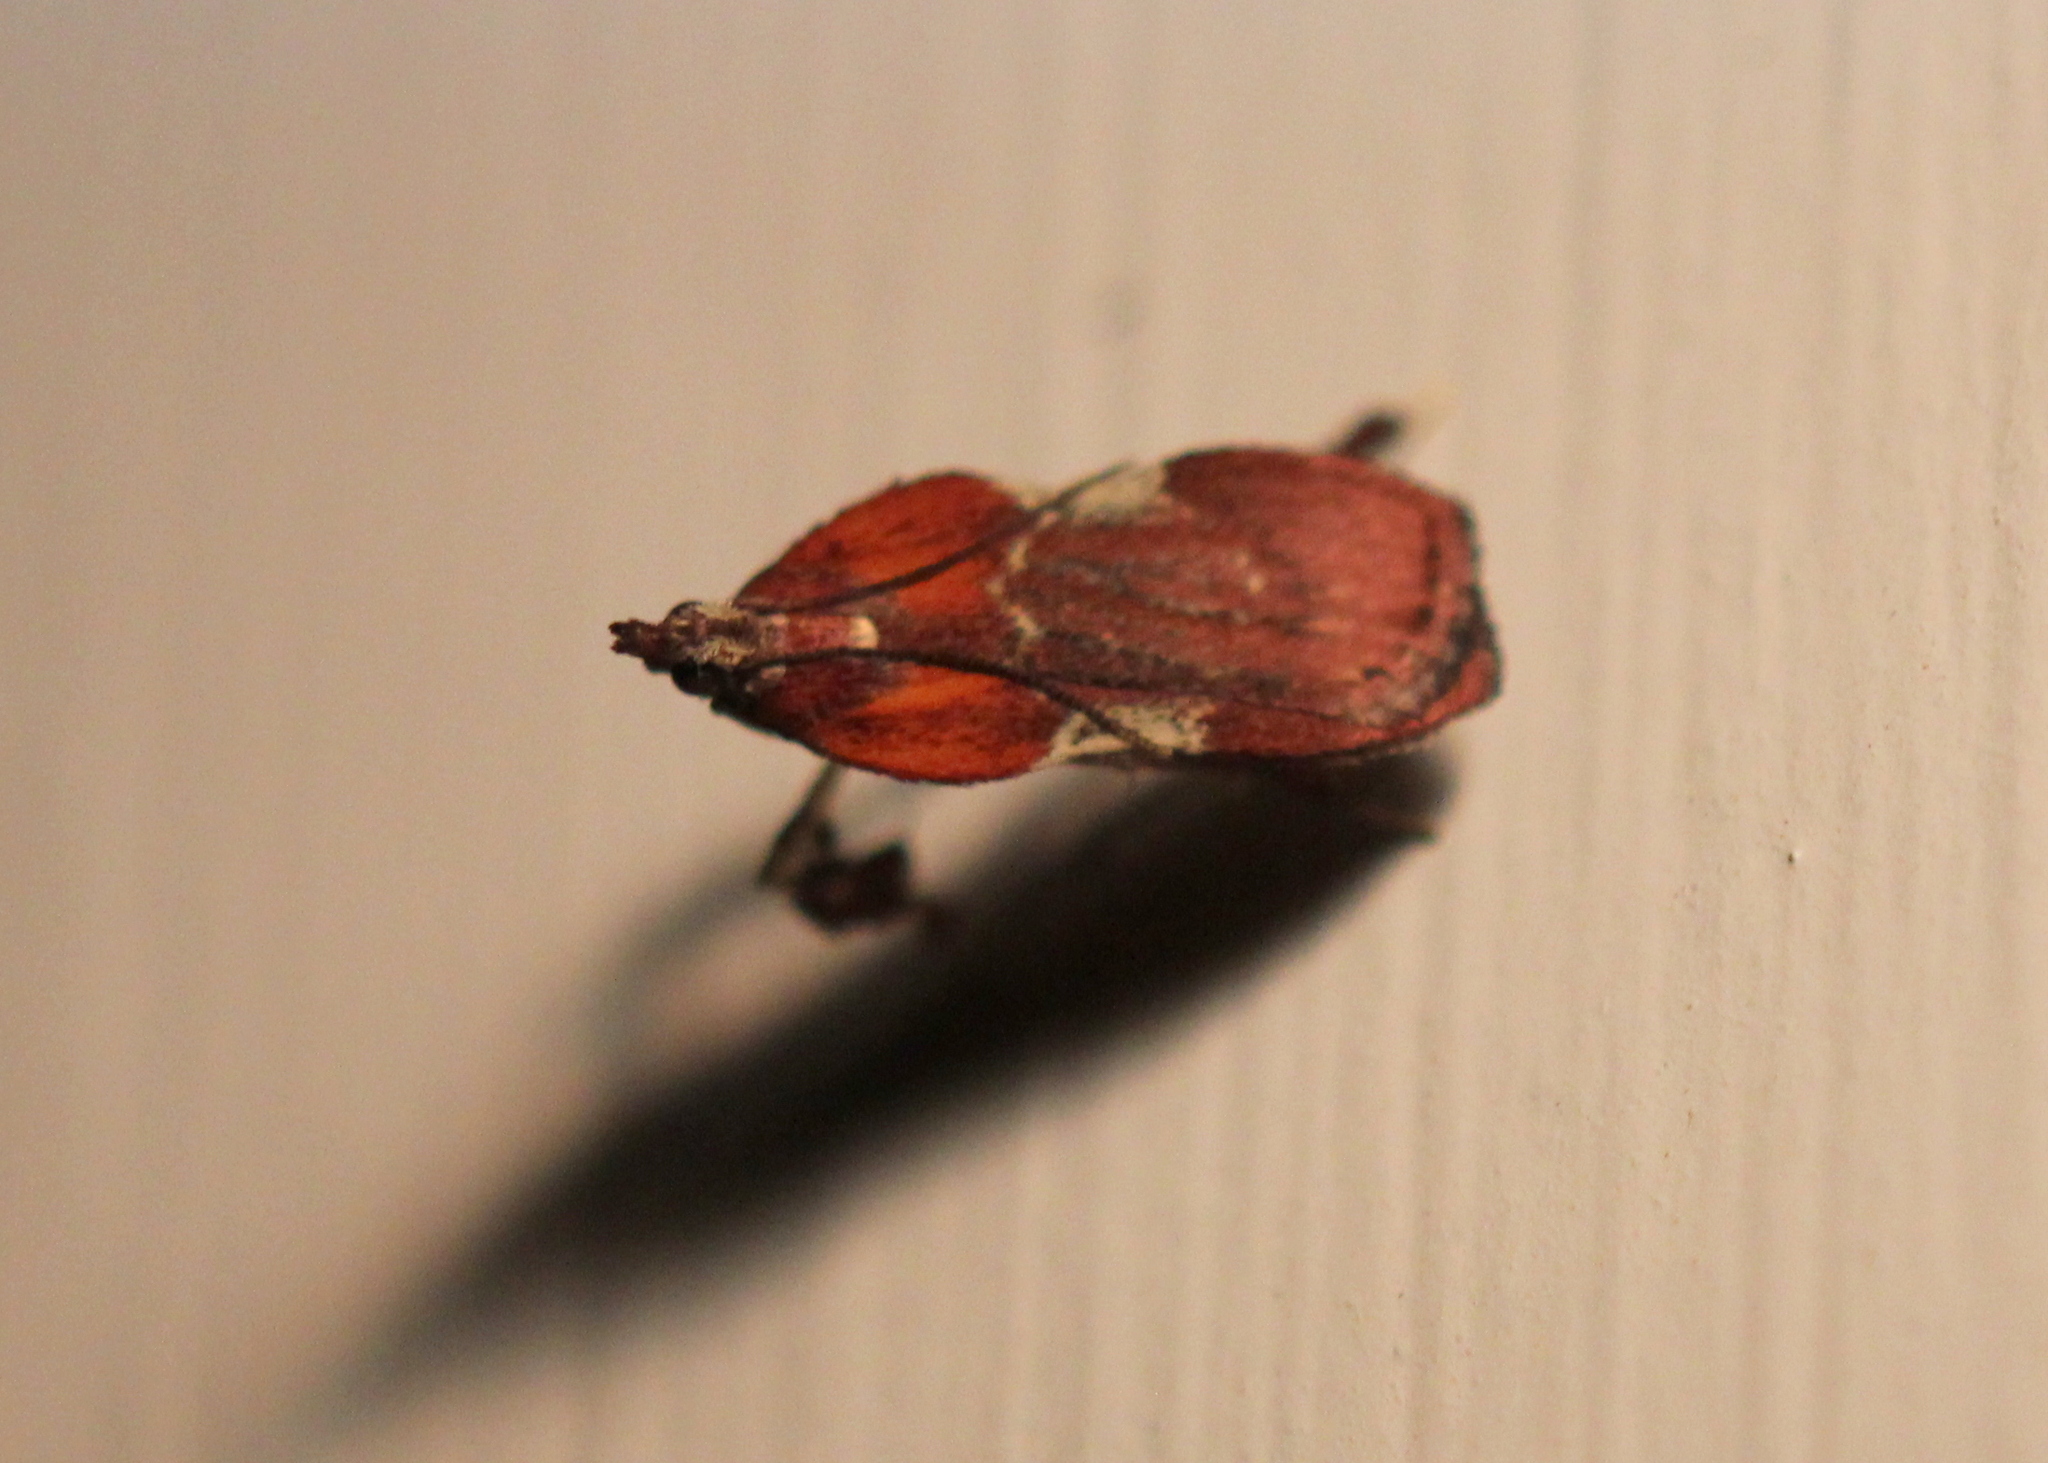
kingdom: Animalia
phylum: Arthropoda
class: Insecta
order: Lepidoptera
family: Pyralidae
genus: Galasa
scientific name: Galasa nigrinodis
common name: Boxwood leaftier moth
